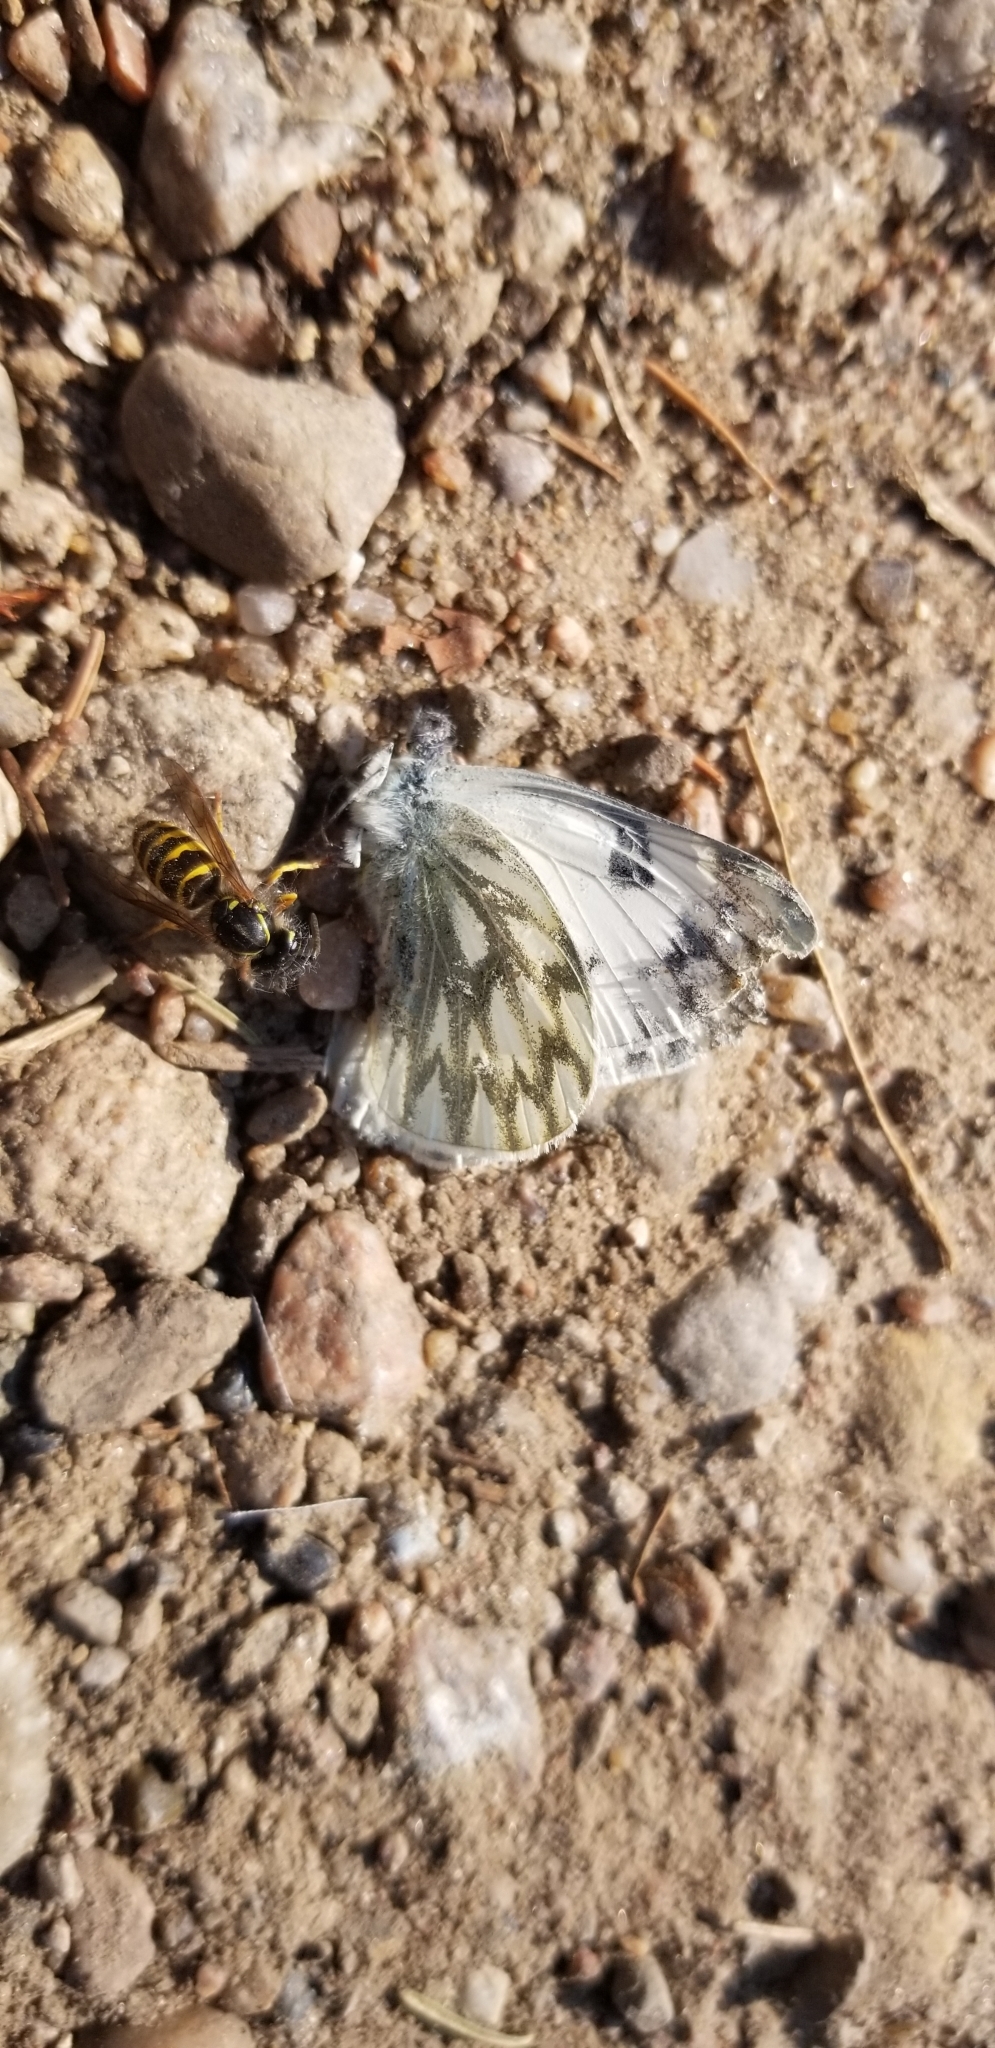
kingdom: Animalia
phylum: Arthropoda
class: Insecta
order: Lepidoptera
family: Pieridae
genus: Pontia
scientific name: Pontia occidentalis
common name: Western white
